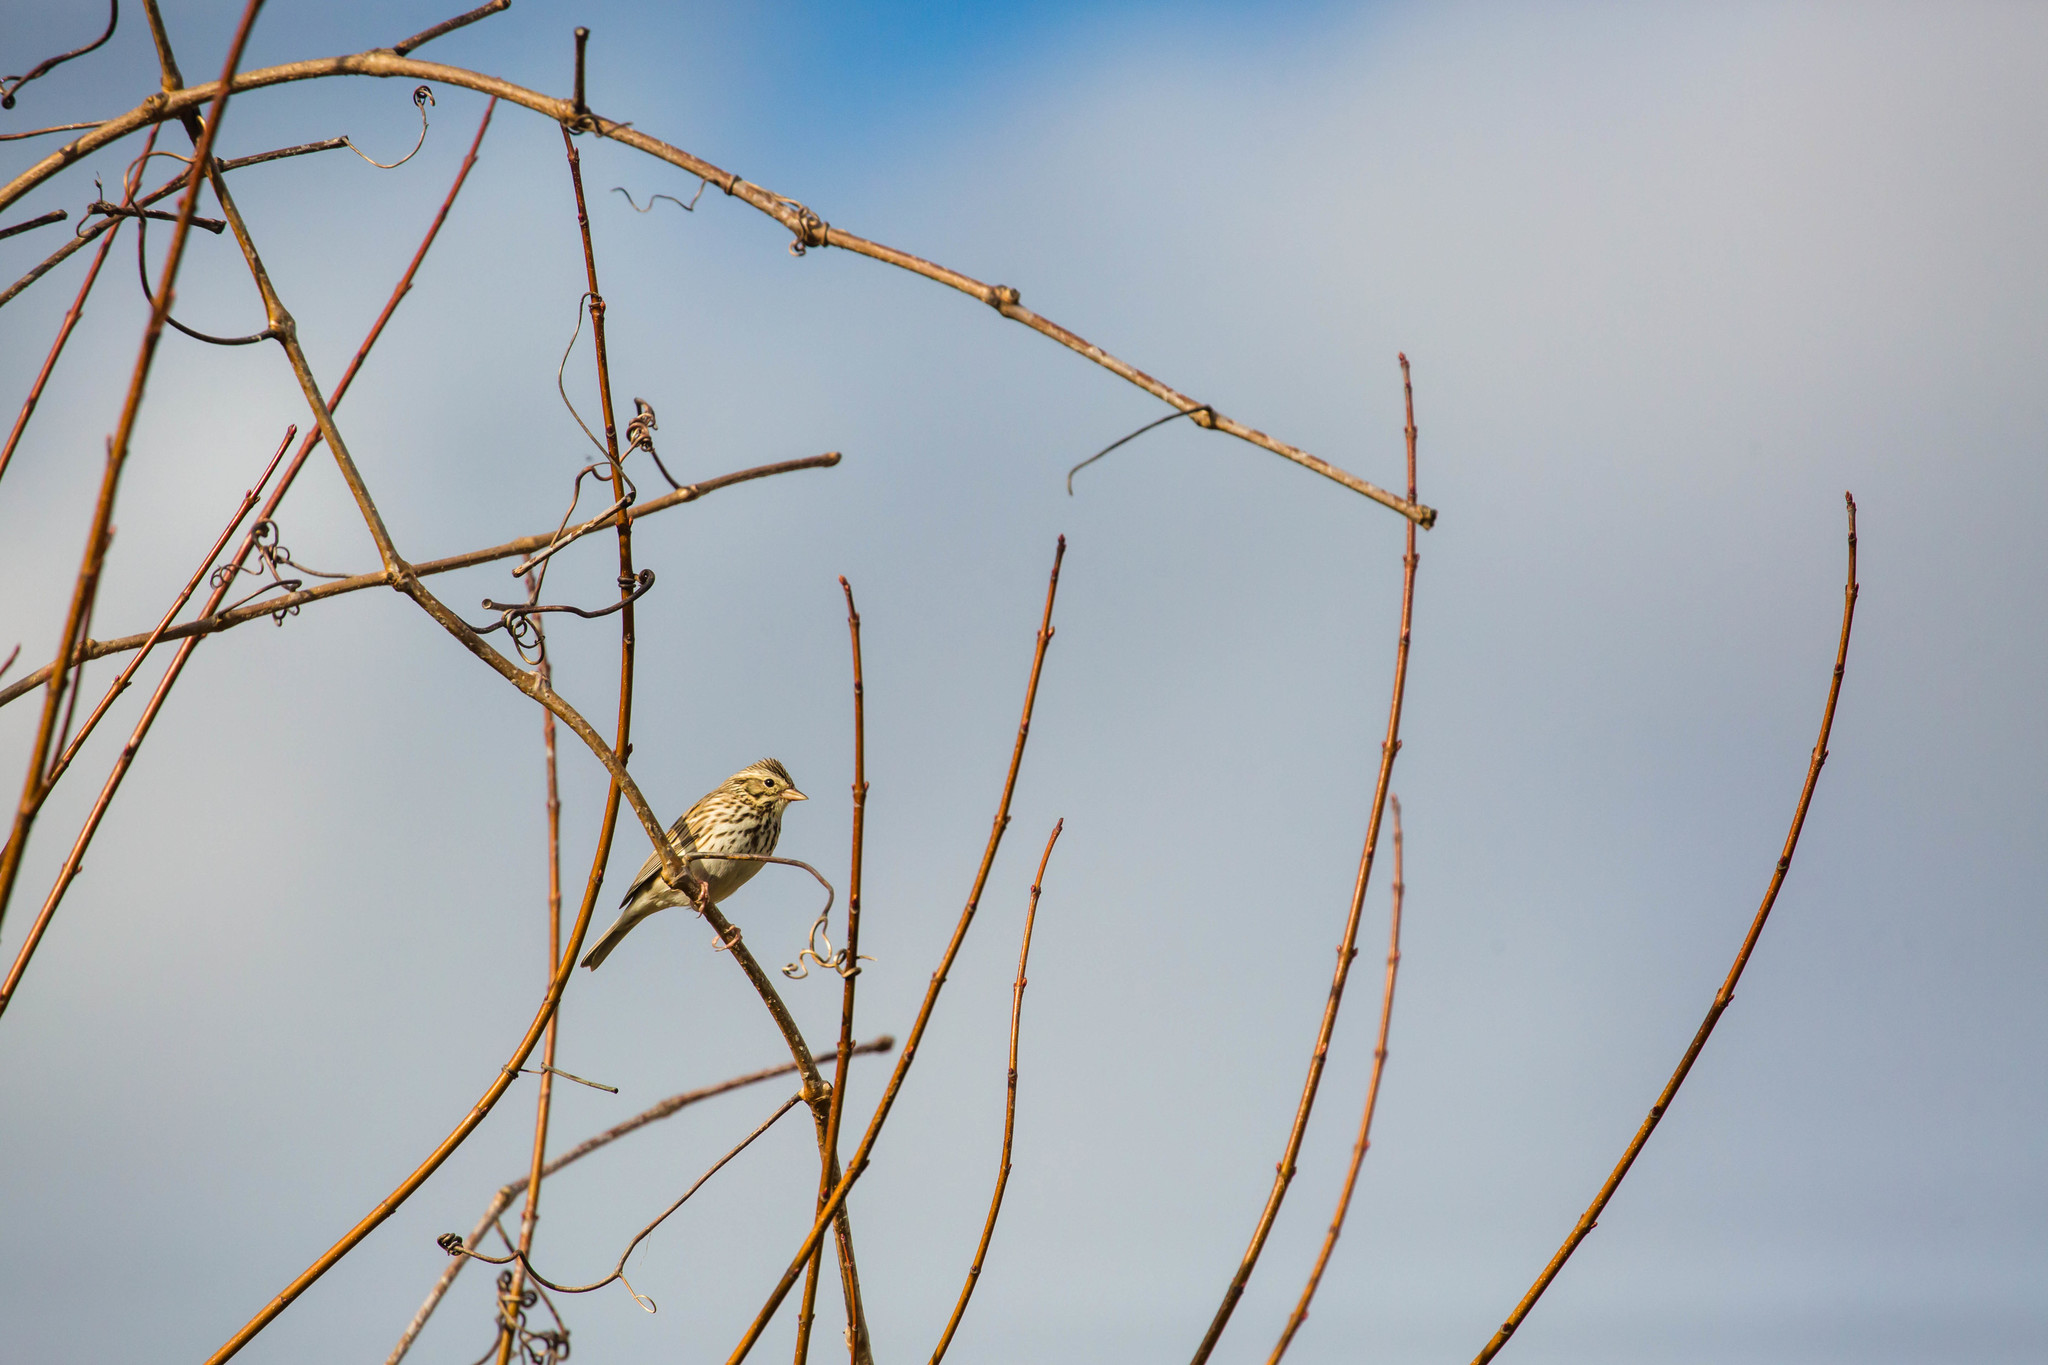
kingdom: Animalia
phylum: Chordata
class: Aves
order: Passeriformes
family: Passerellidae
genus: Melospiza
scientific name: Melospiza melodia
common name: Song sparrow
